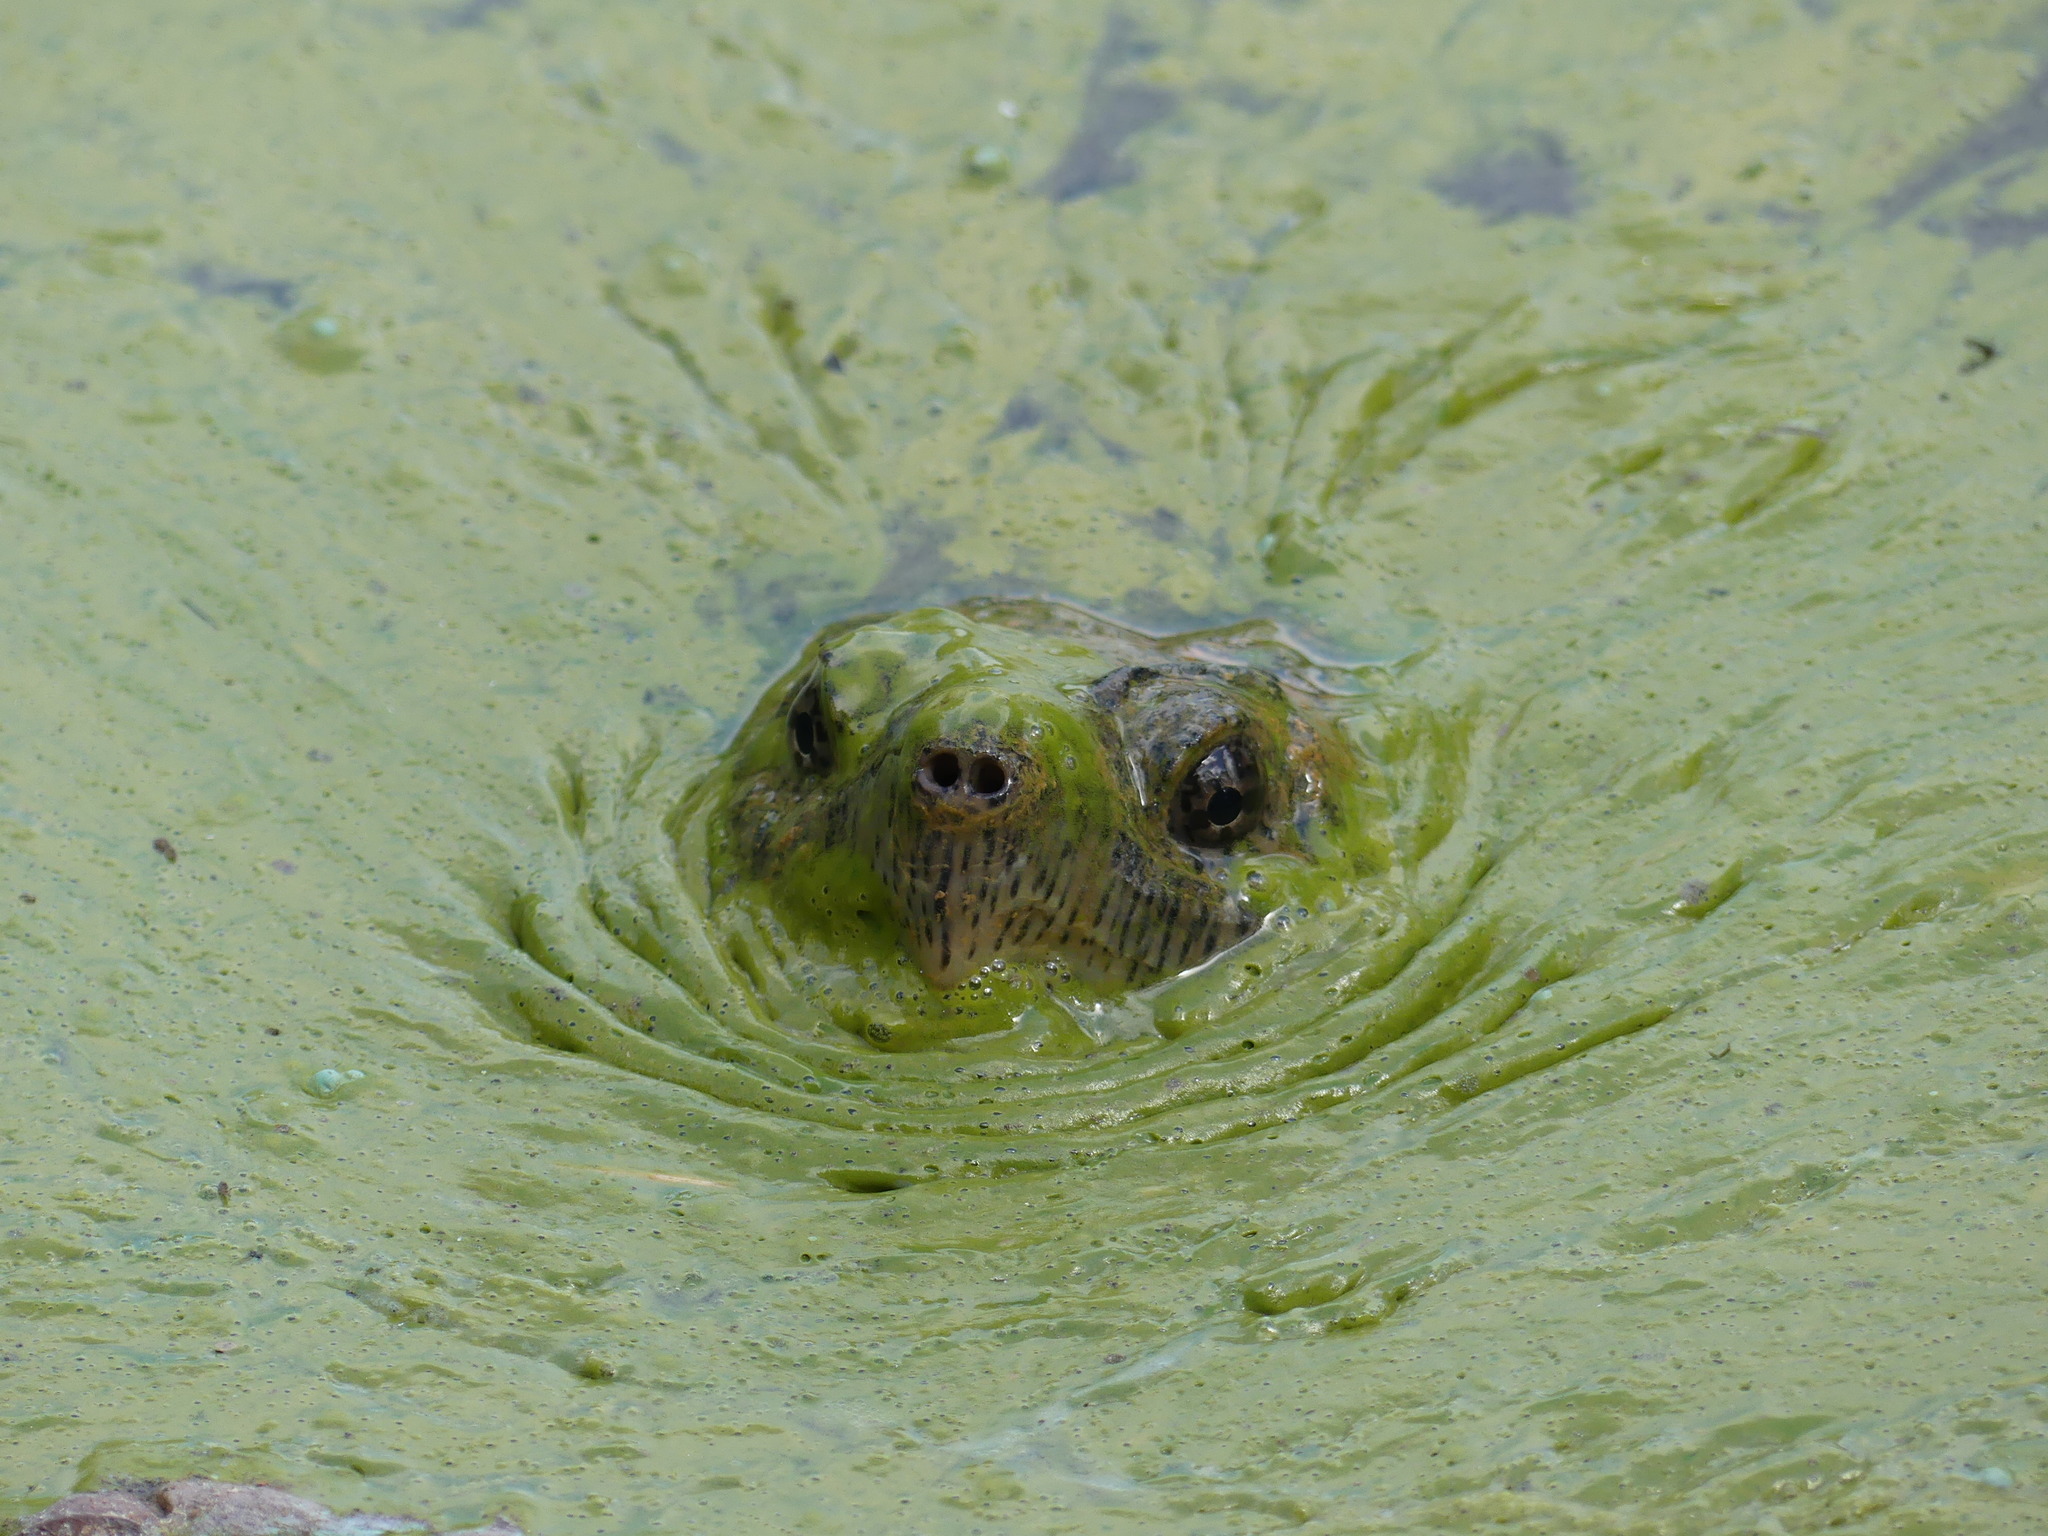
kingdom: Animalia
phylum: Chordata
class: Testudines
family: Chelydridae
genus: Chelydra
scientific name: Chelydra serpentina
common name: Common snapping turtle
